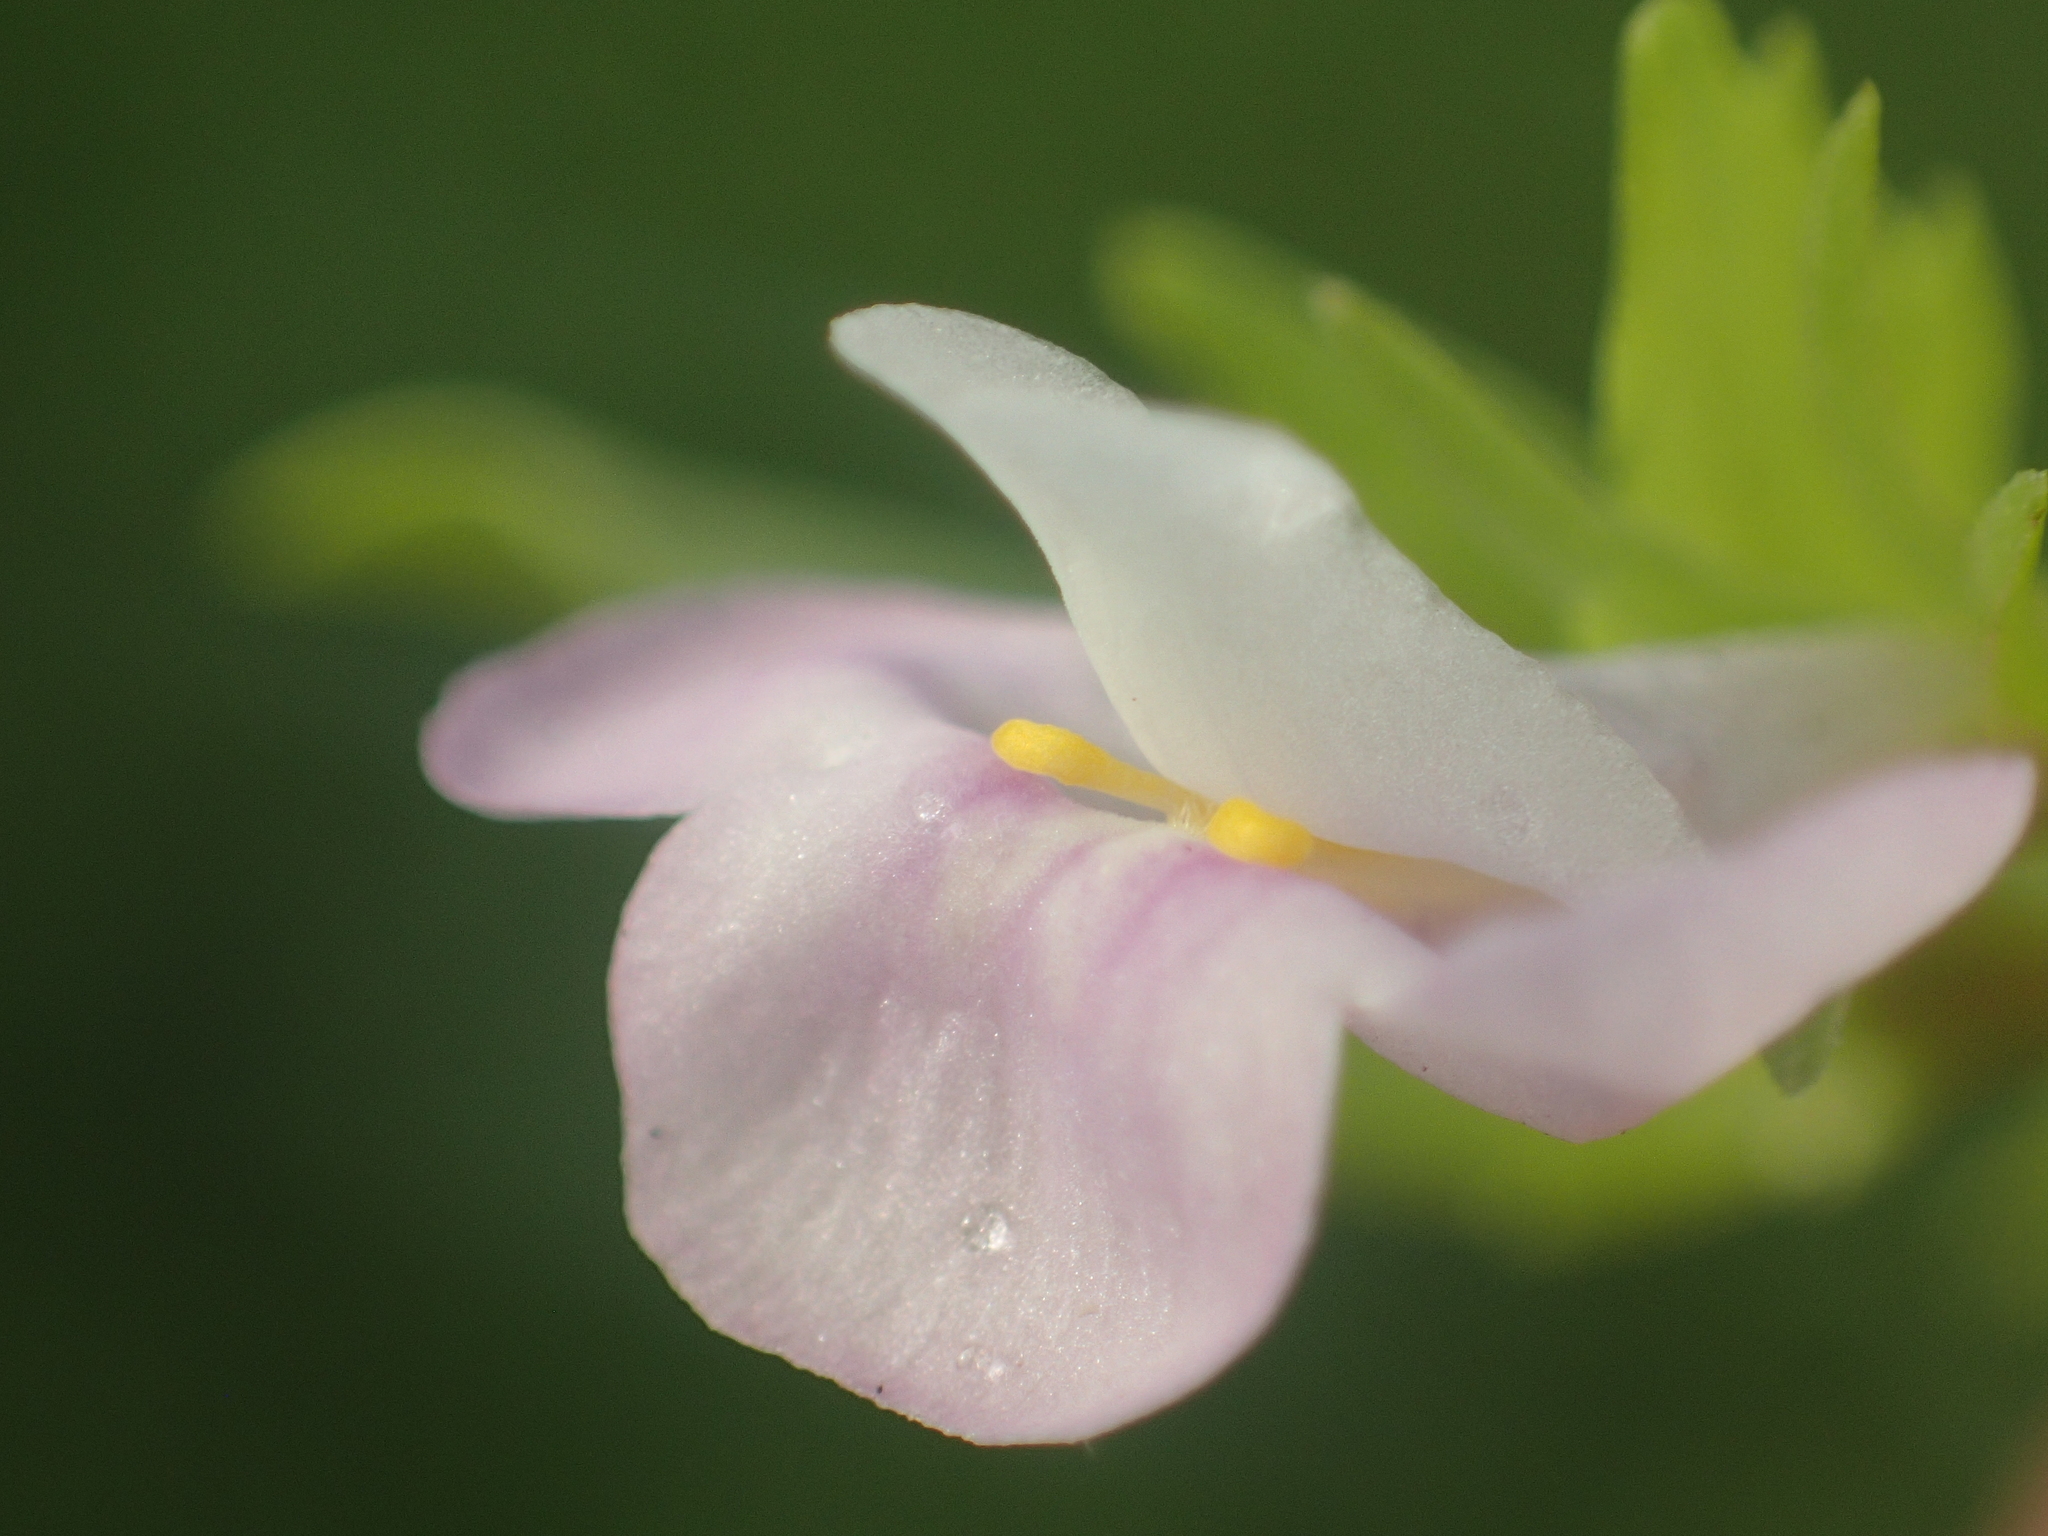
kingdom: Plantae
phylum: Tracheophyta
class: Magnoliopsida
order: Lamiales
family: Linderniaceae
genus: Bonnaya
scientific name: Bonnaya antipoda
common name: Sparrow false pimpernel
